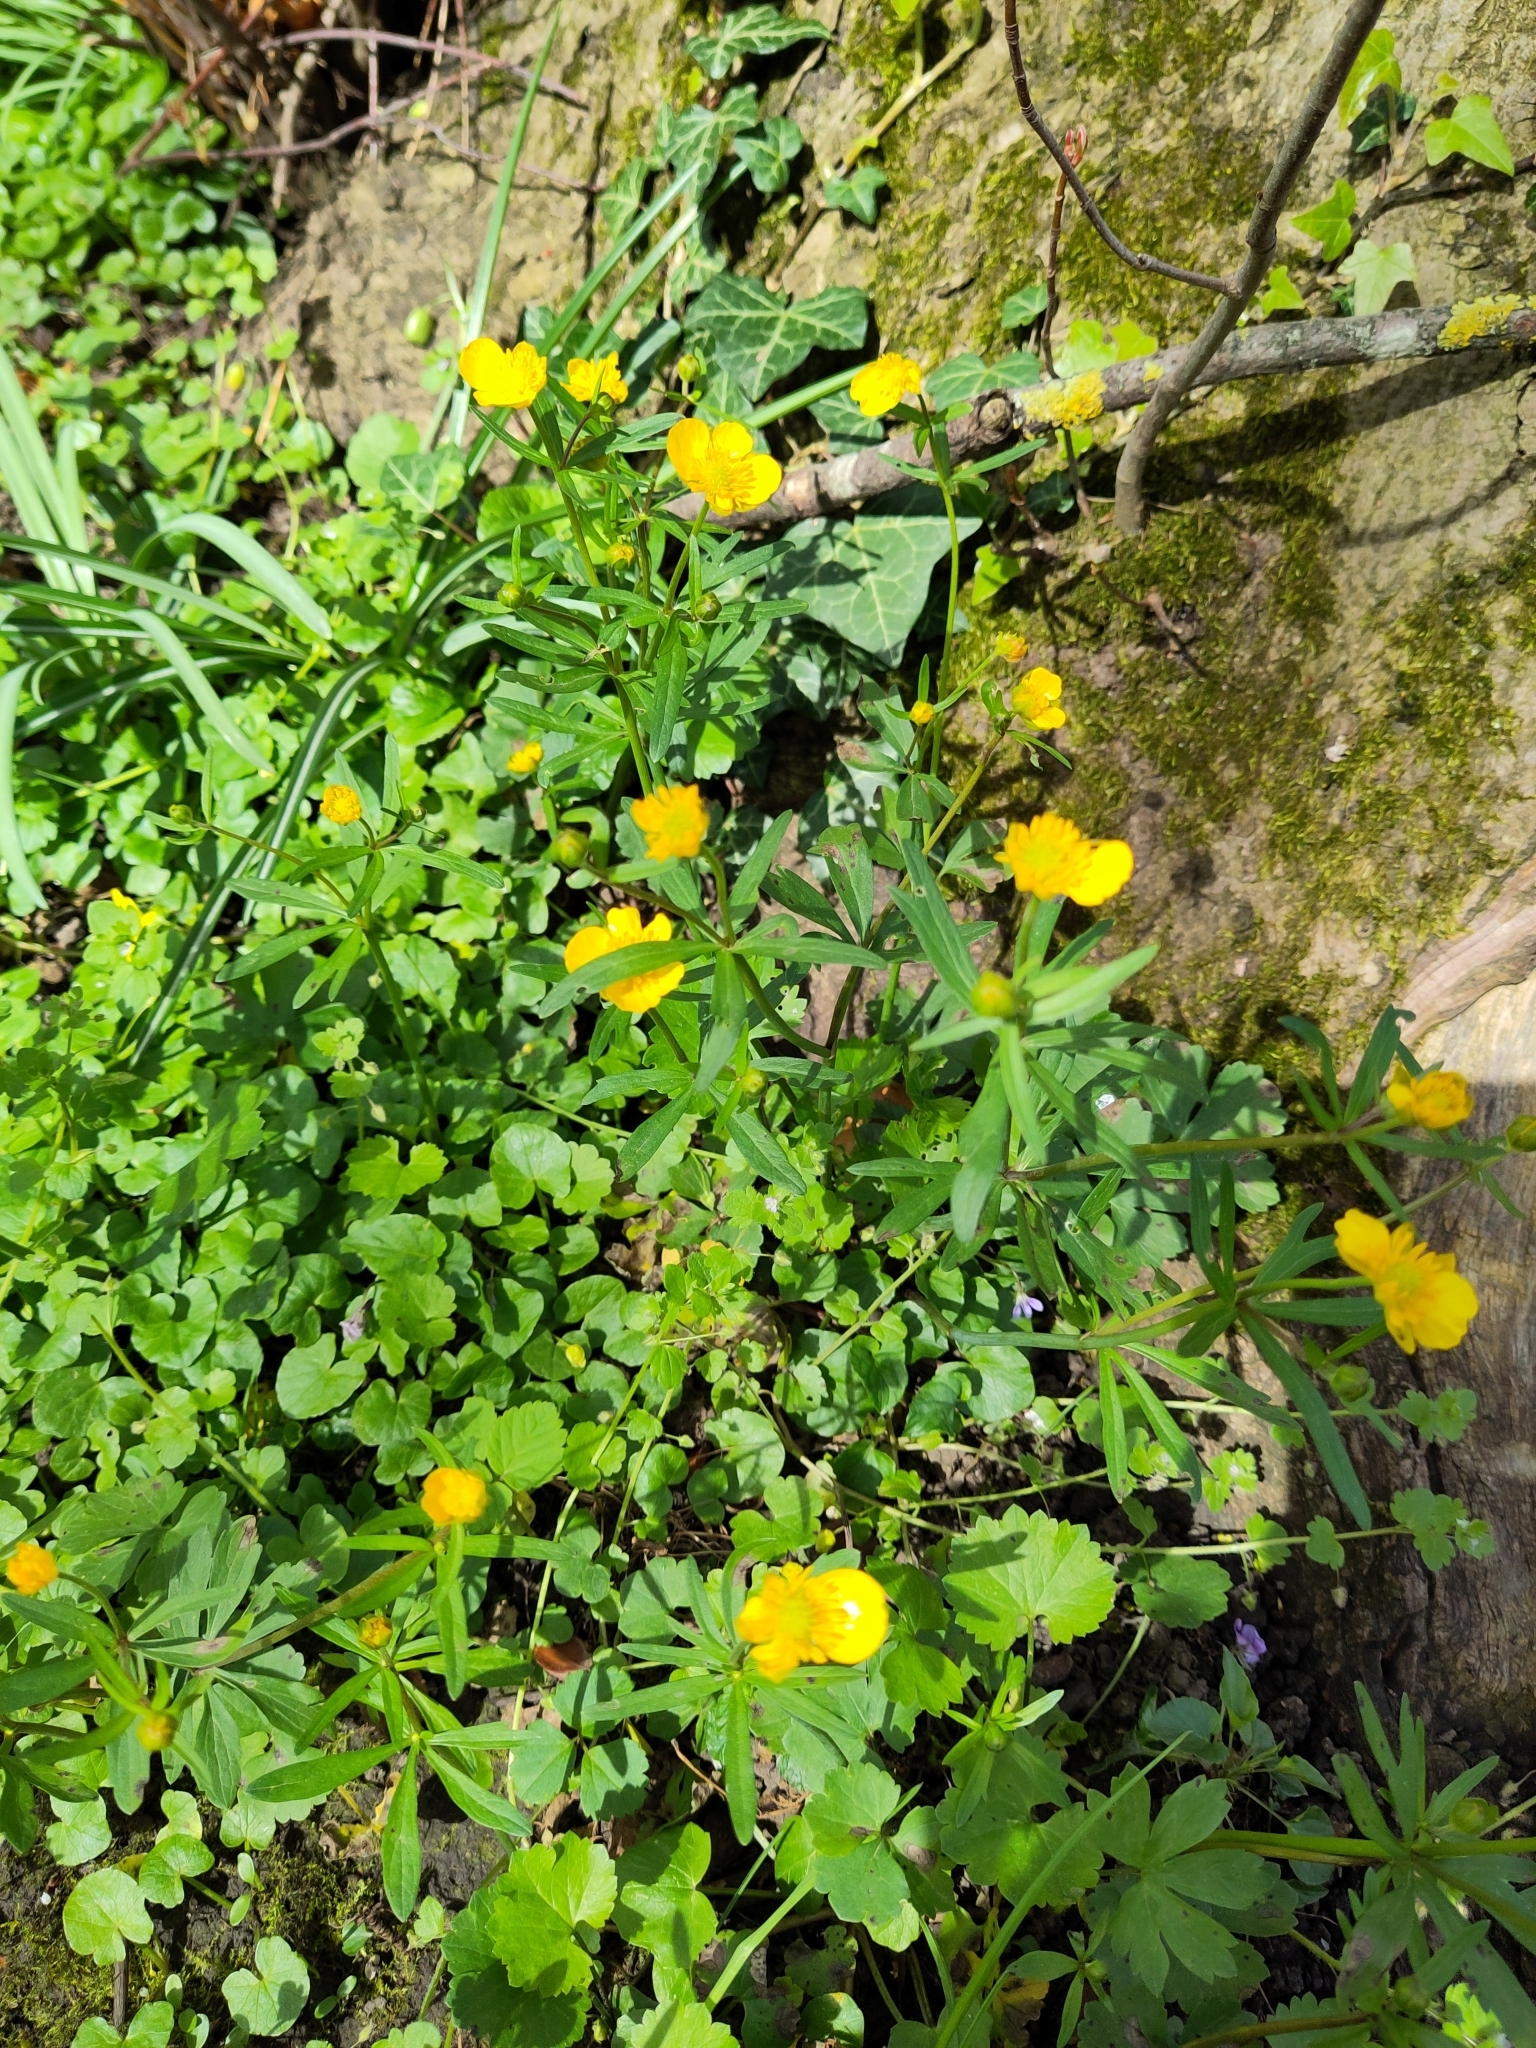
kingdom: Plantae
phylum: Tracheophyta
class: Magnoliopsida
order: Ranunculales
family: Ranunculaceae
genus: Ranunculus
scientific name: Ranunculus auricomus
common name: Goldilocks buttercup
